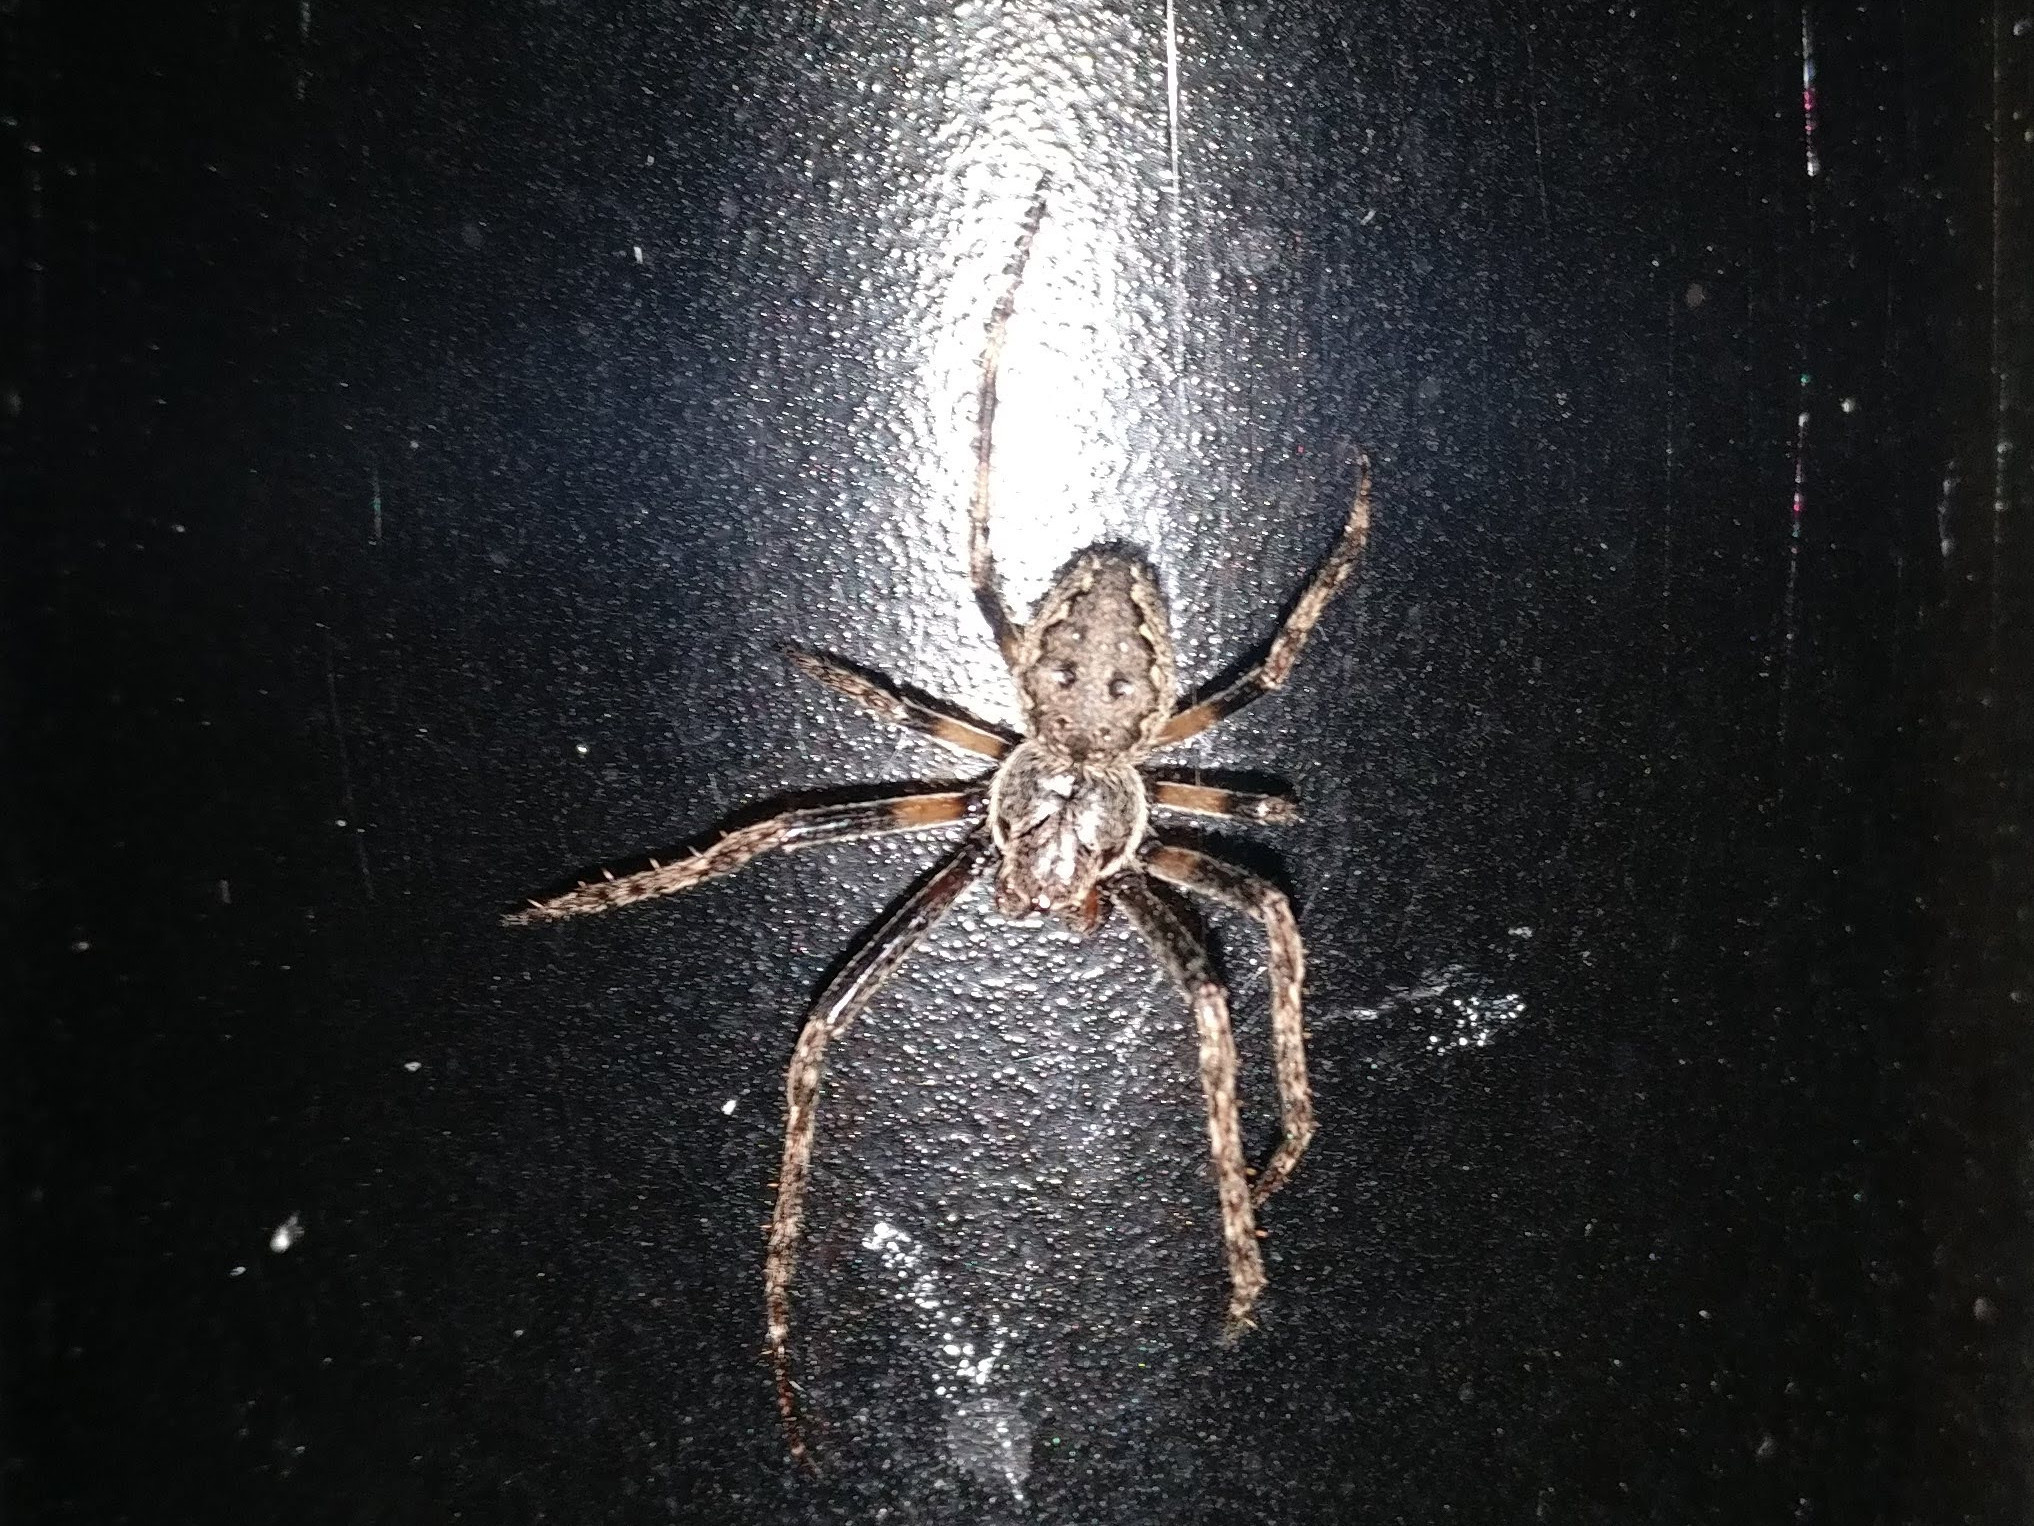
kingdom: Animalia
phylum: Arthropoda
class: Arachnida
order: Araneae
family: Araneidae
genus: Nuctenea
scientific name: Nuctenea umbratica
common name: Toad spider
